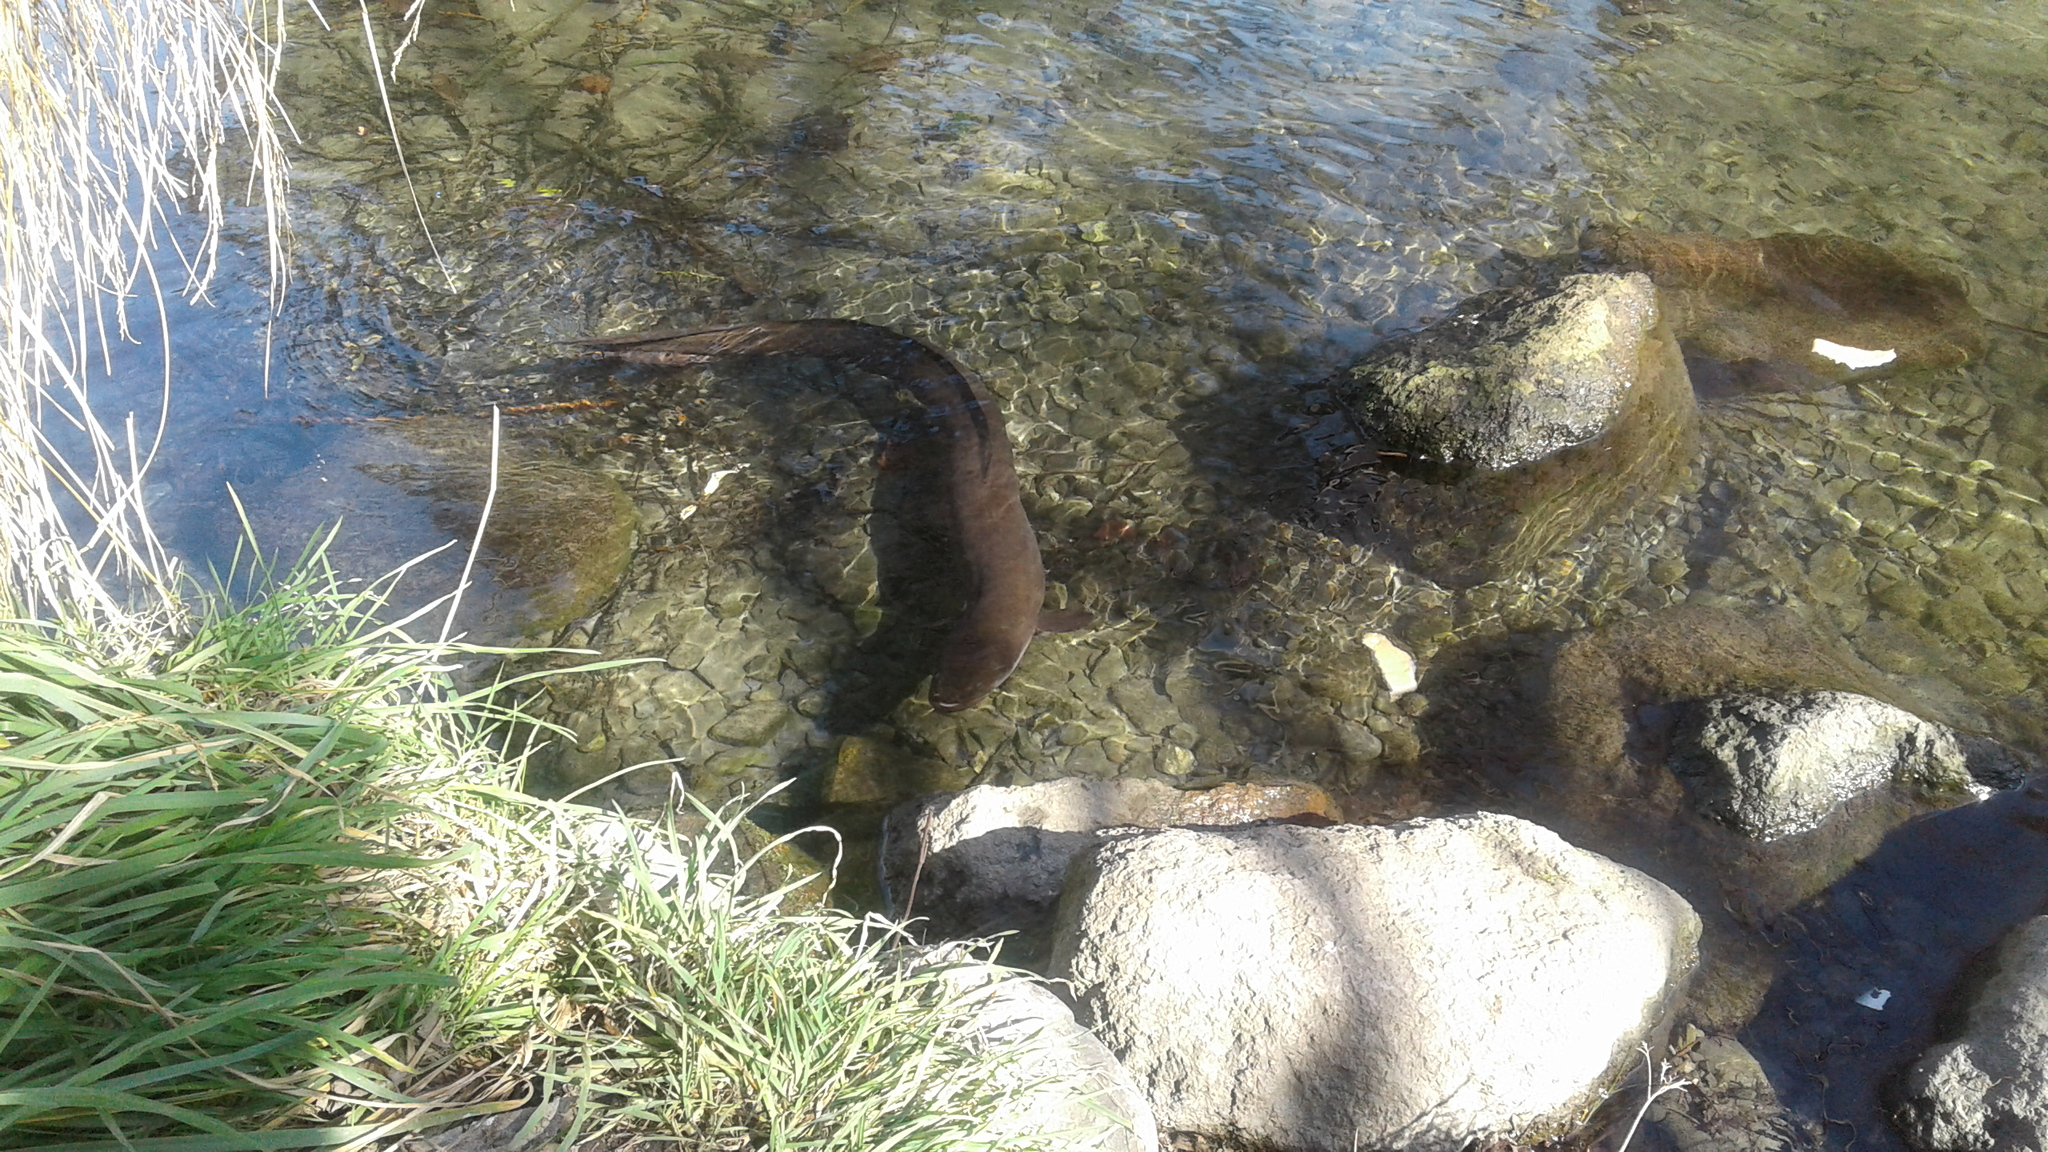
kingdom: Animalia
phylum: Chordata
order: Anguilliformes
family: Anguillidae
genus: Anguilla
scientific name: Anguilla dieffenbachii
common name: New zealand longfin eel
